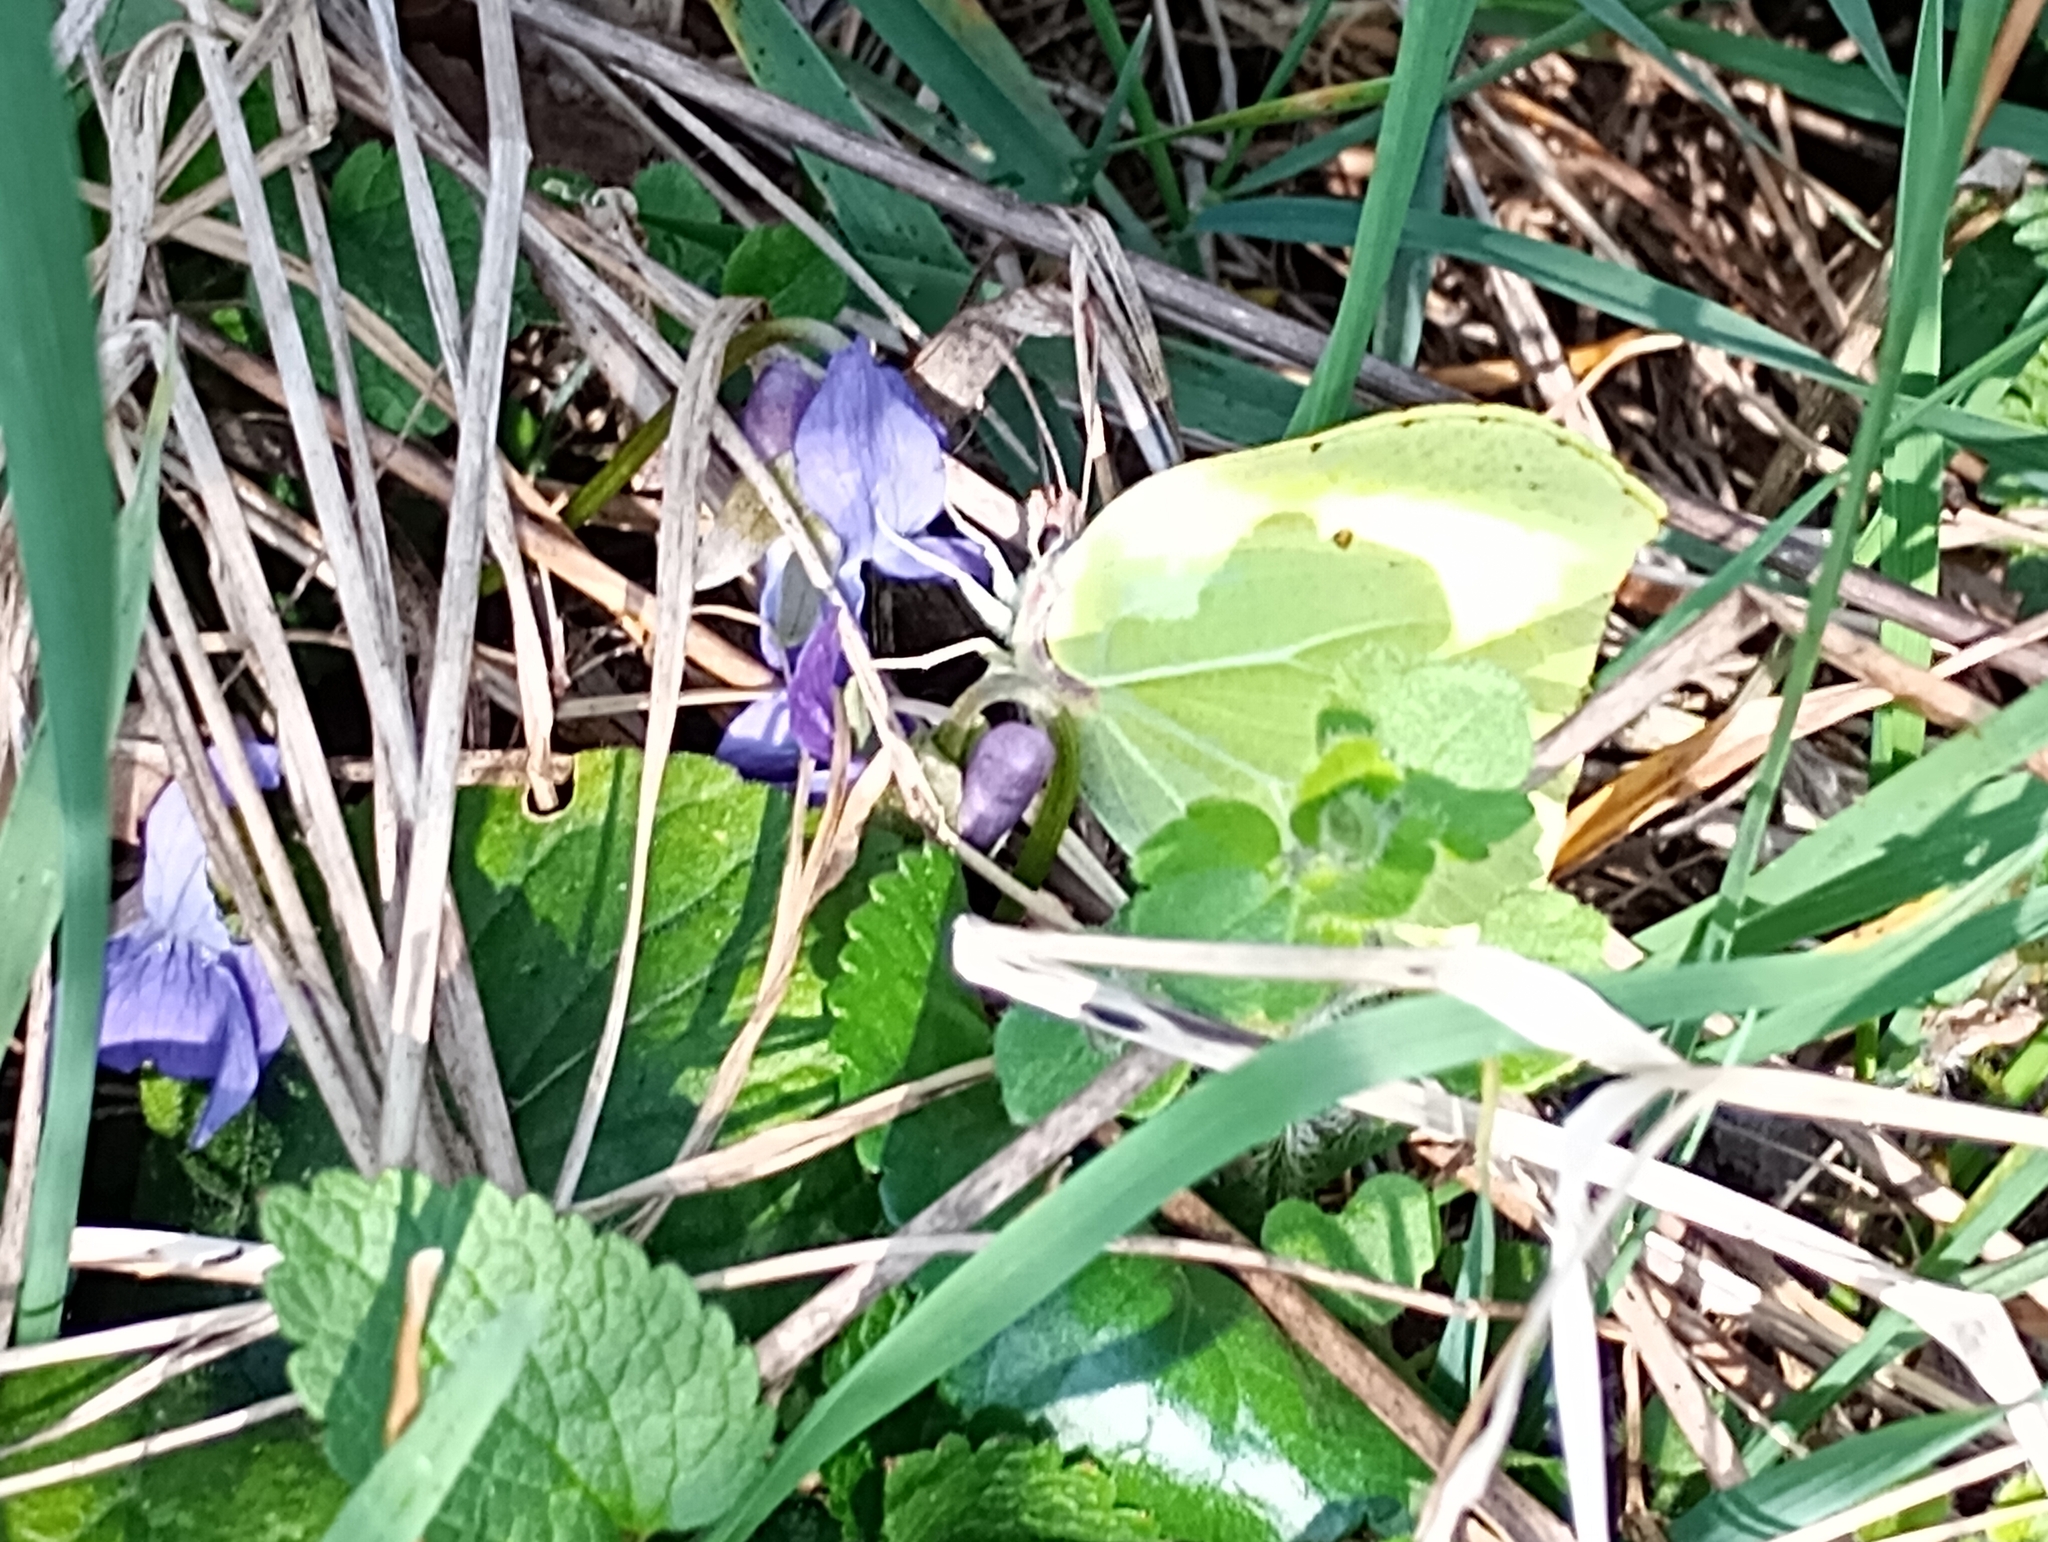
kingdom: Animalia
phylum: Arthropoda
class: Insecta
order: Lepidoptera
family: Pieridae
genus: Gonepteryx
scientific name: Gonepteryx rhamni
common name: Brimstone
